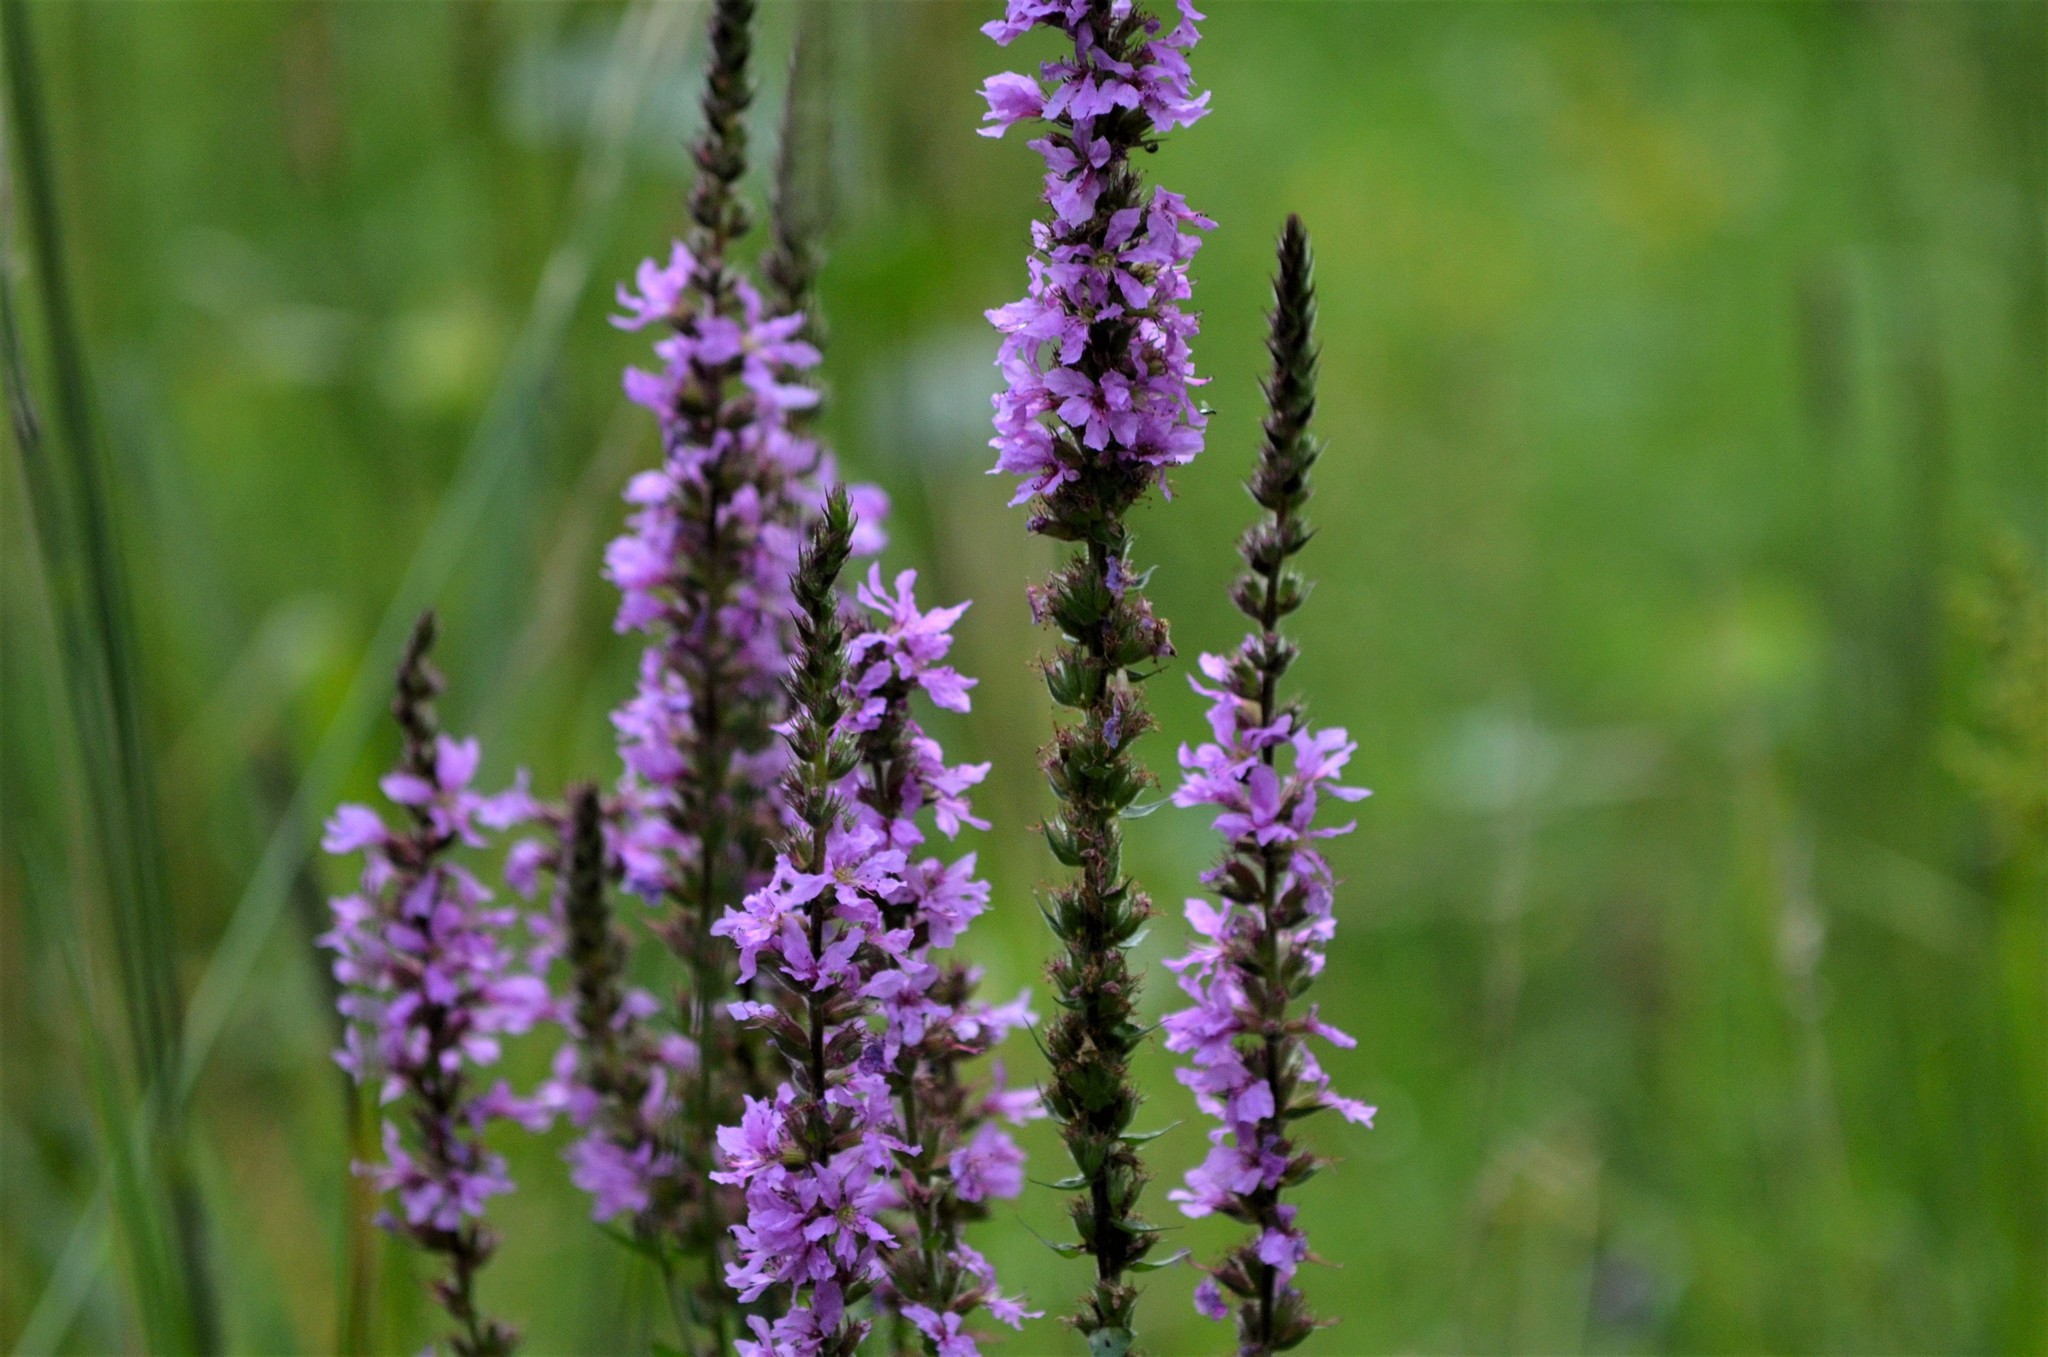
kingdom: Plantae
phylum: Tracheophyta
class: Magnoliopsida
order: Myrtales
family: Lythraceae
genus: Lythrum
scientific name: Lythrum salicaria
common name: Purple loosestrife
